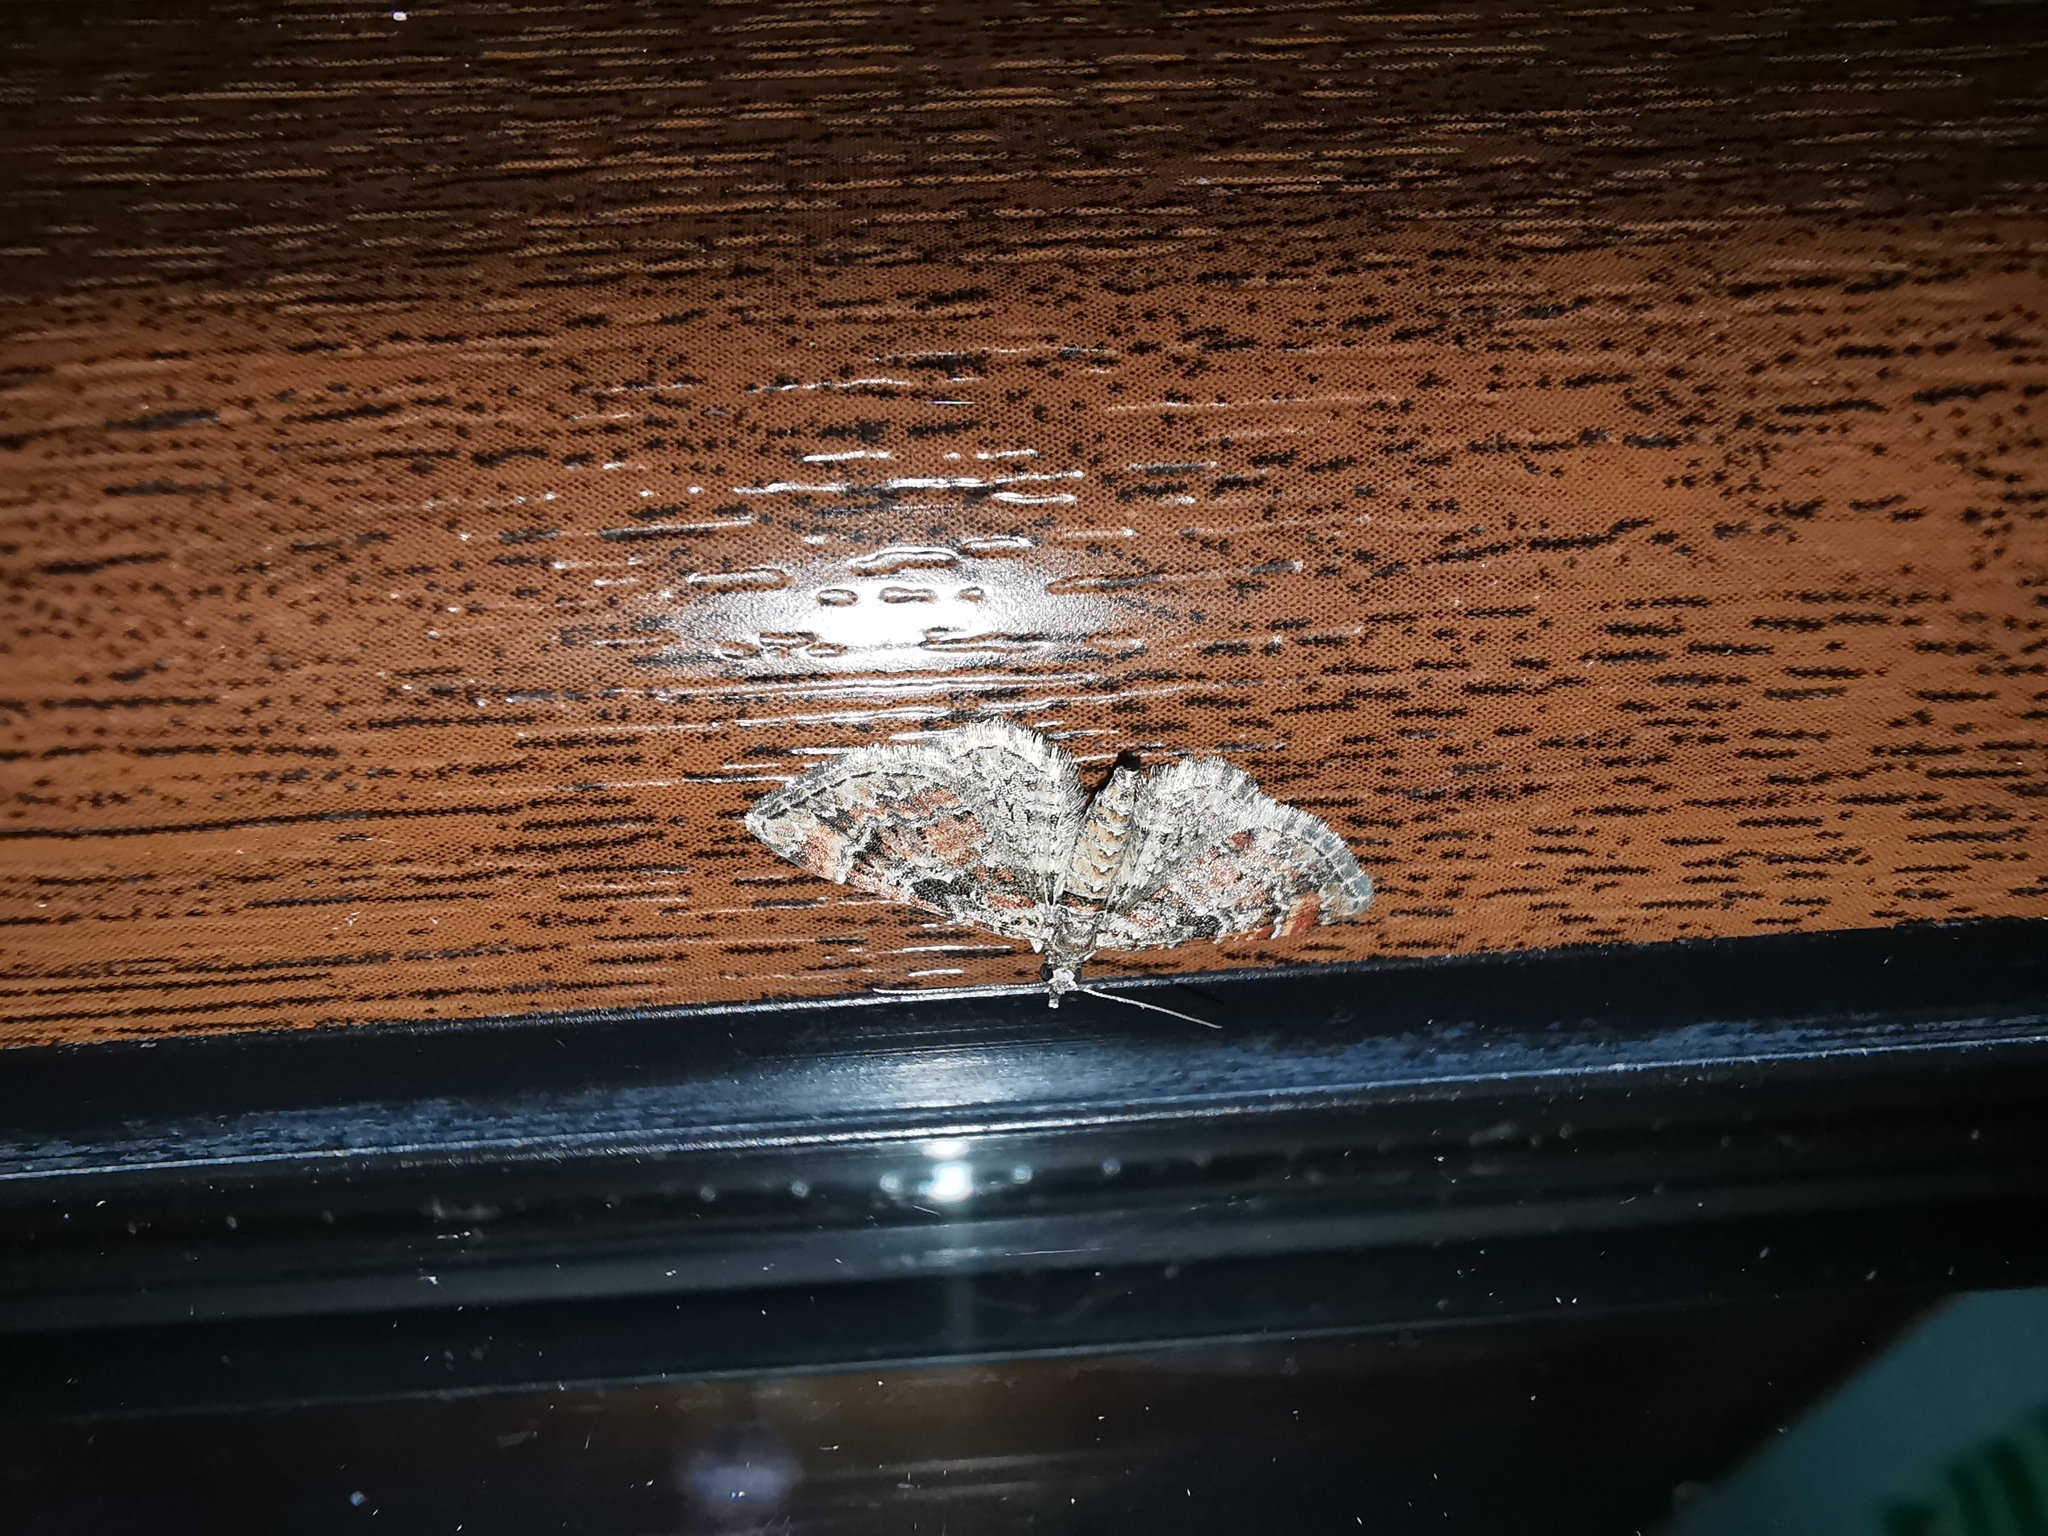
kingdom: Animalia
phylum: Arthropoda
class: Insecta
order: Lepidoptera
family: Geometridae
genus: Gymnoscelis
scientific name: Gymnoscelis rufifasciata
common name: Double-striped pug
